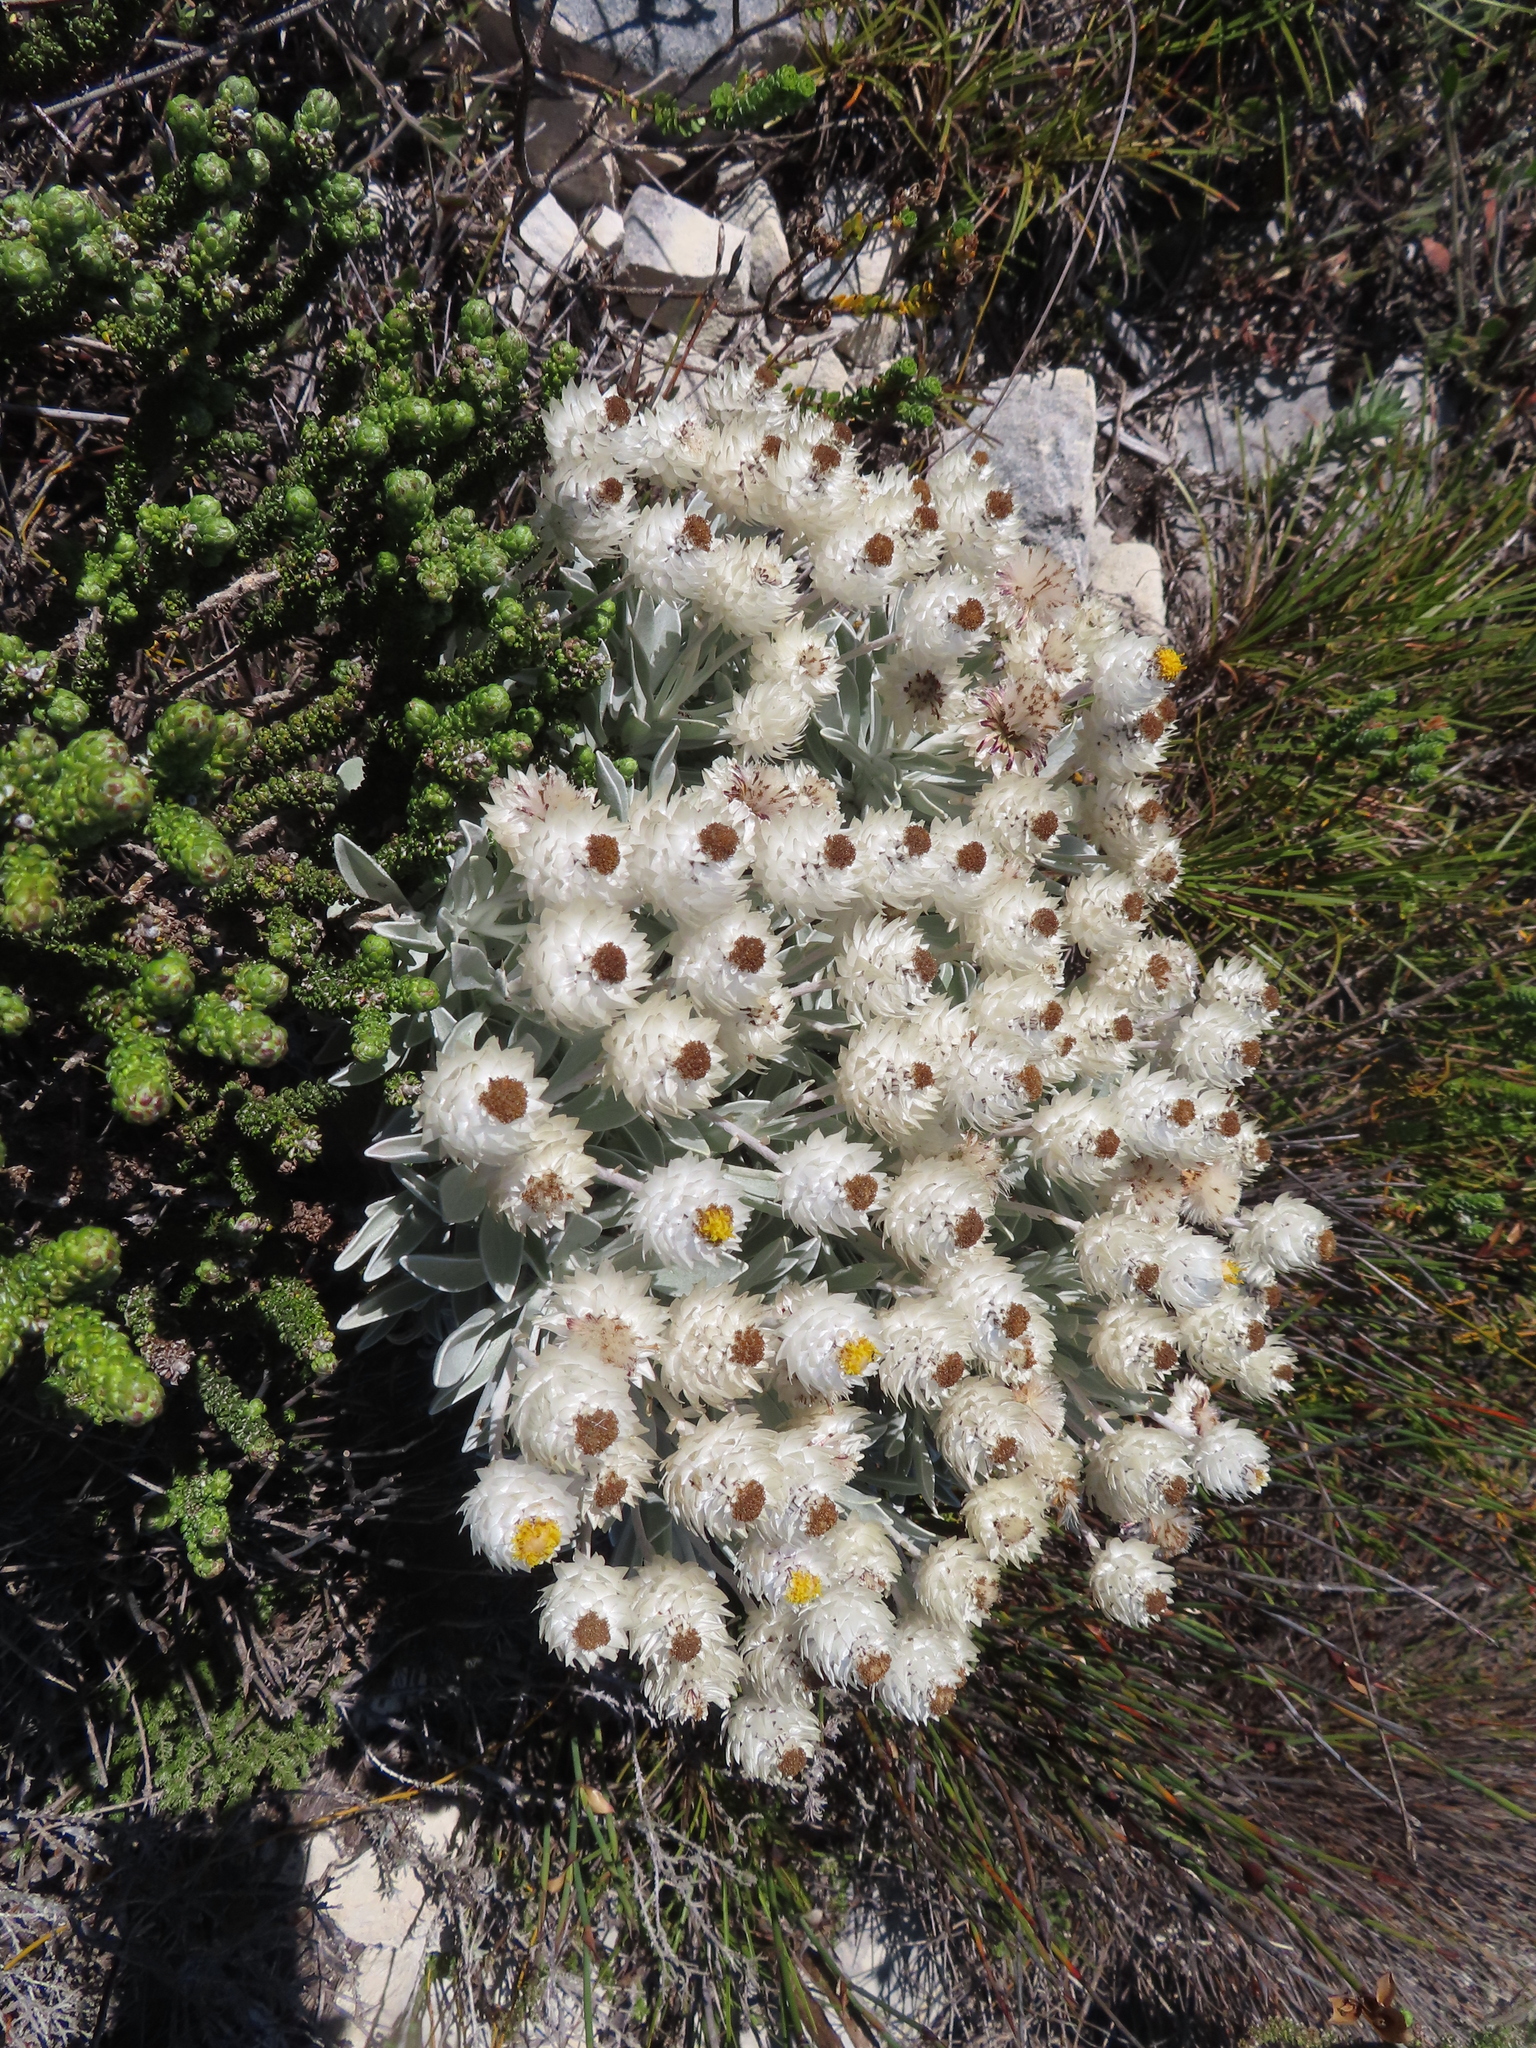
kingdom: Plantae
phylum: Tracheophyta
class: Magnoliopsida
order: Asterales
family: Asteraceae
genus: Syncarpha
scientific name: Syncarpha argyropsis
